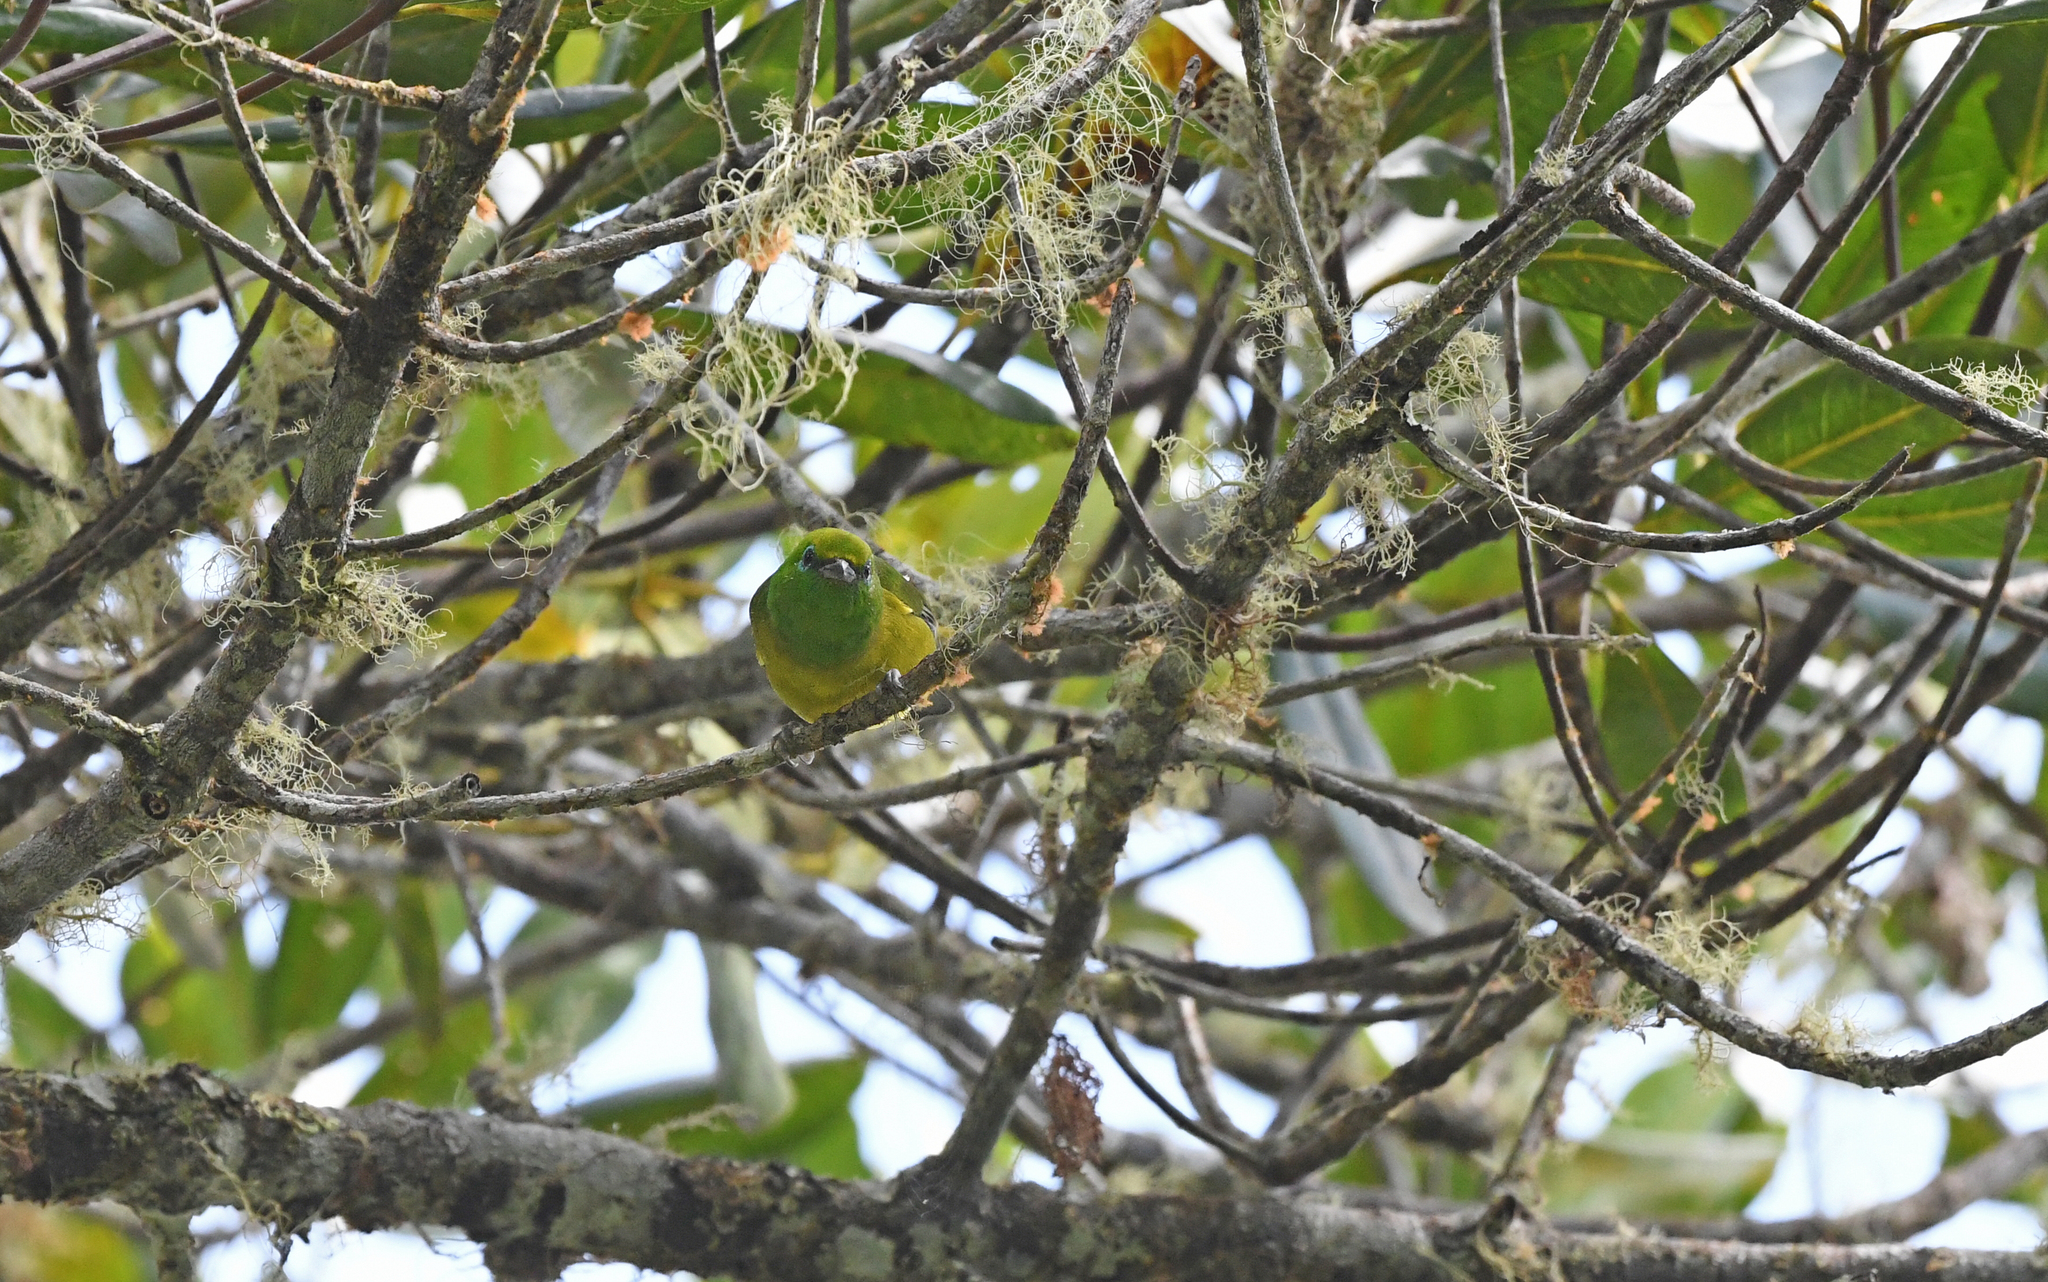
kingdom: Animalia
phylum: Chordata
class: Aves
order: Passeriformes
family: Fringillidae
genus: Chlorophonia
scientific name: Chlorophonia cyanea
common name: Blue-naped chlorophonia
